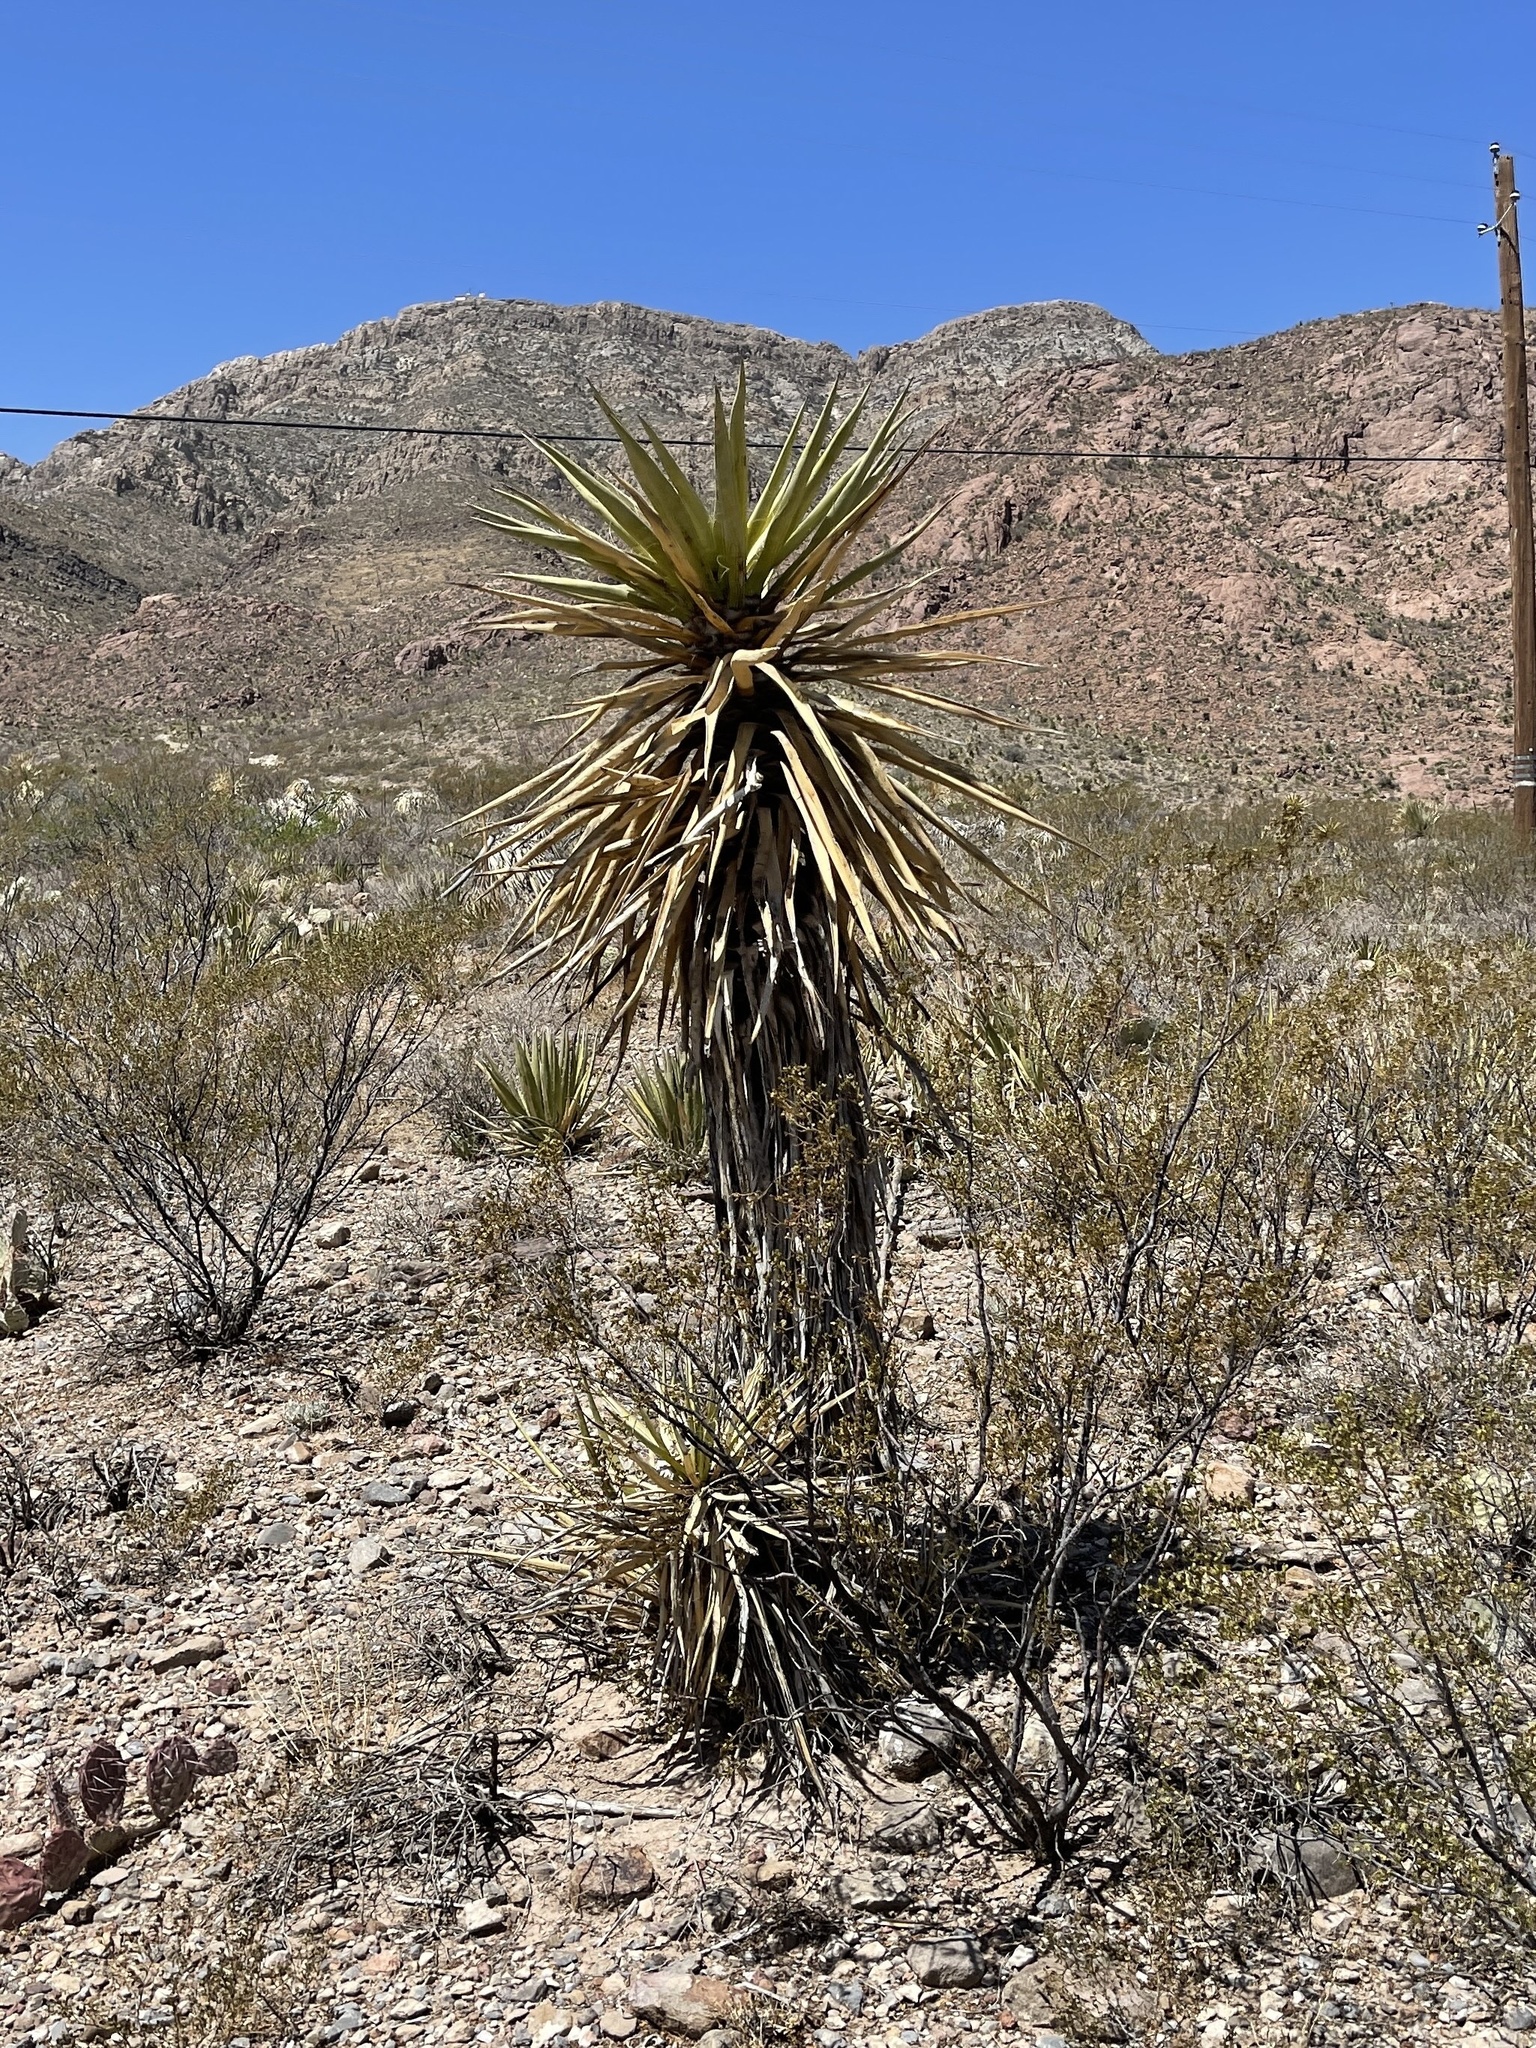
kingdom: Plantae
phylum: Tracheophyta
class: Liliopsida
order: Asparagales
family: Asparagaceae
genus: Yucca
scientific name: Yucca treculiana
